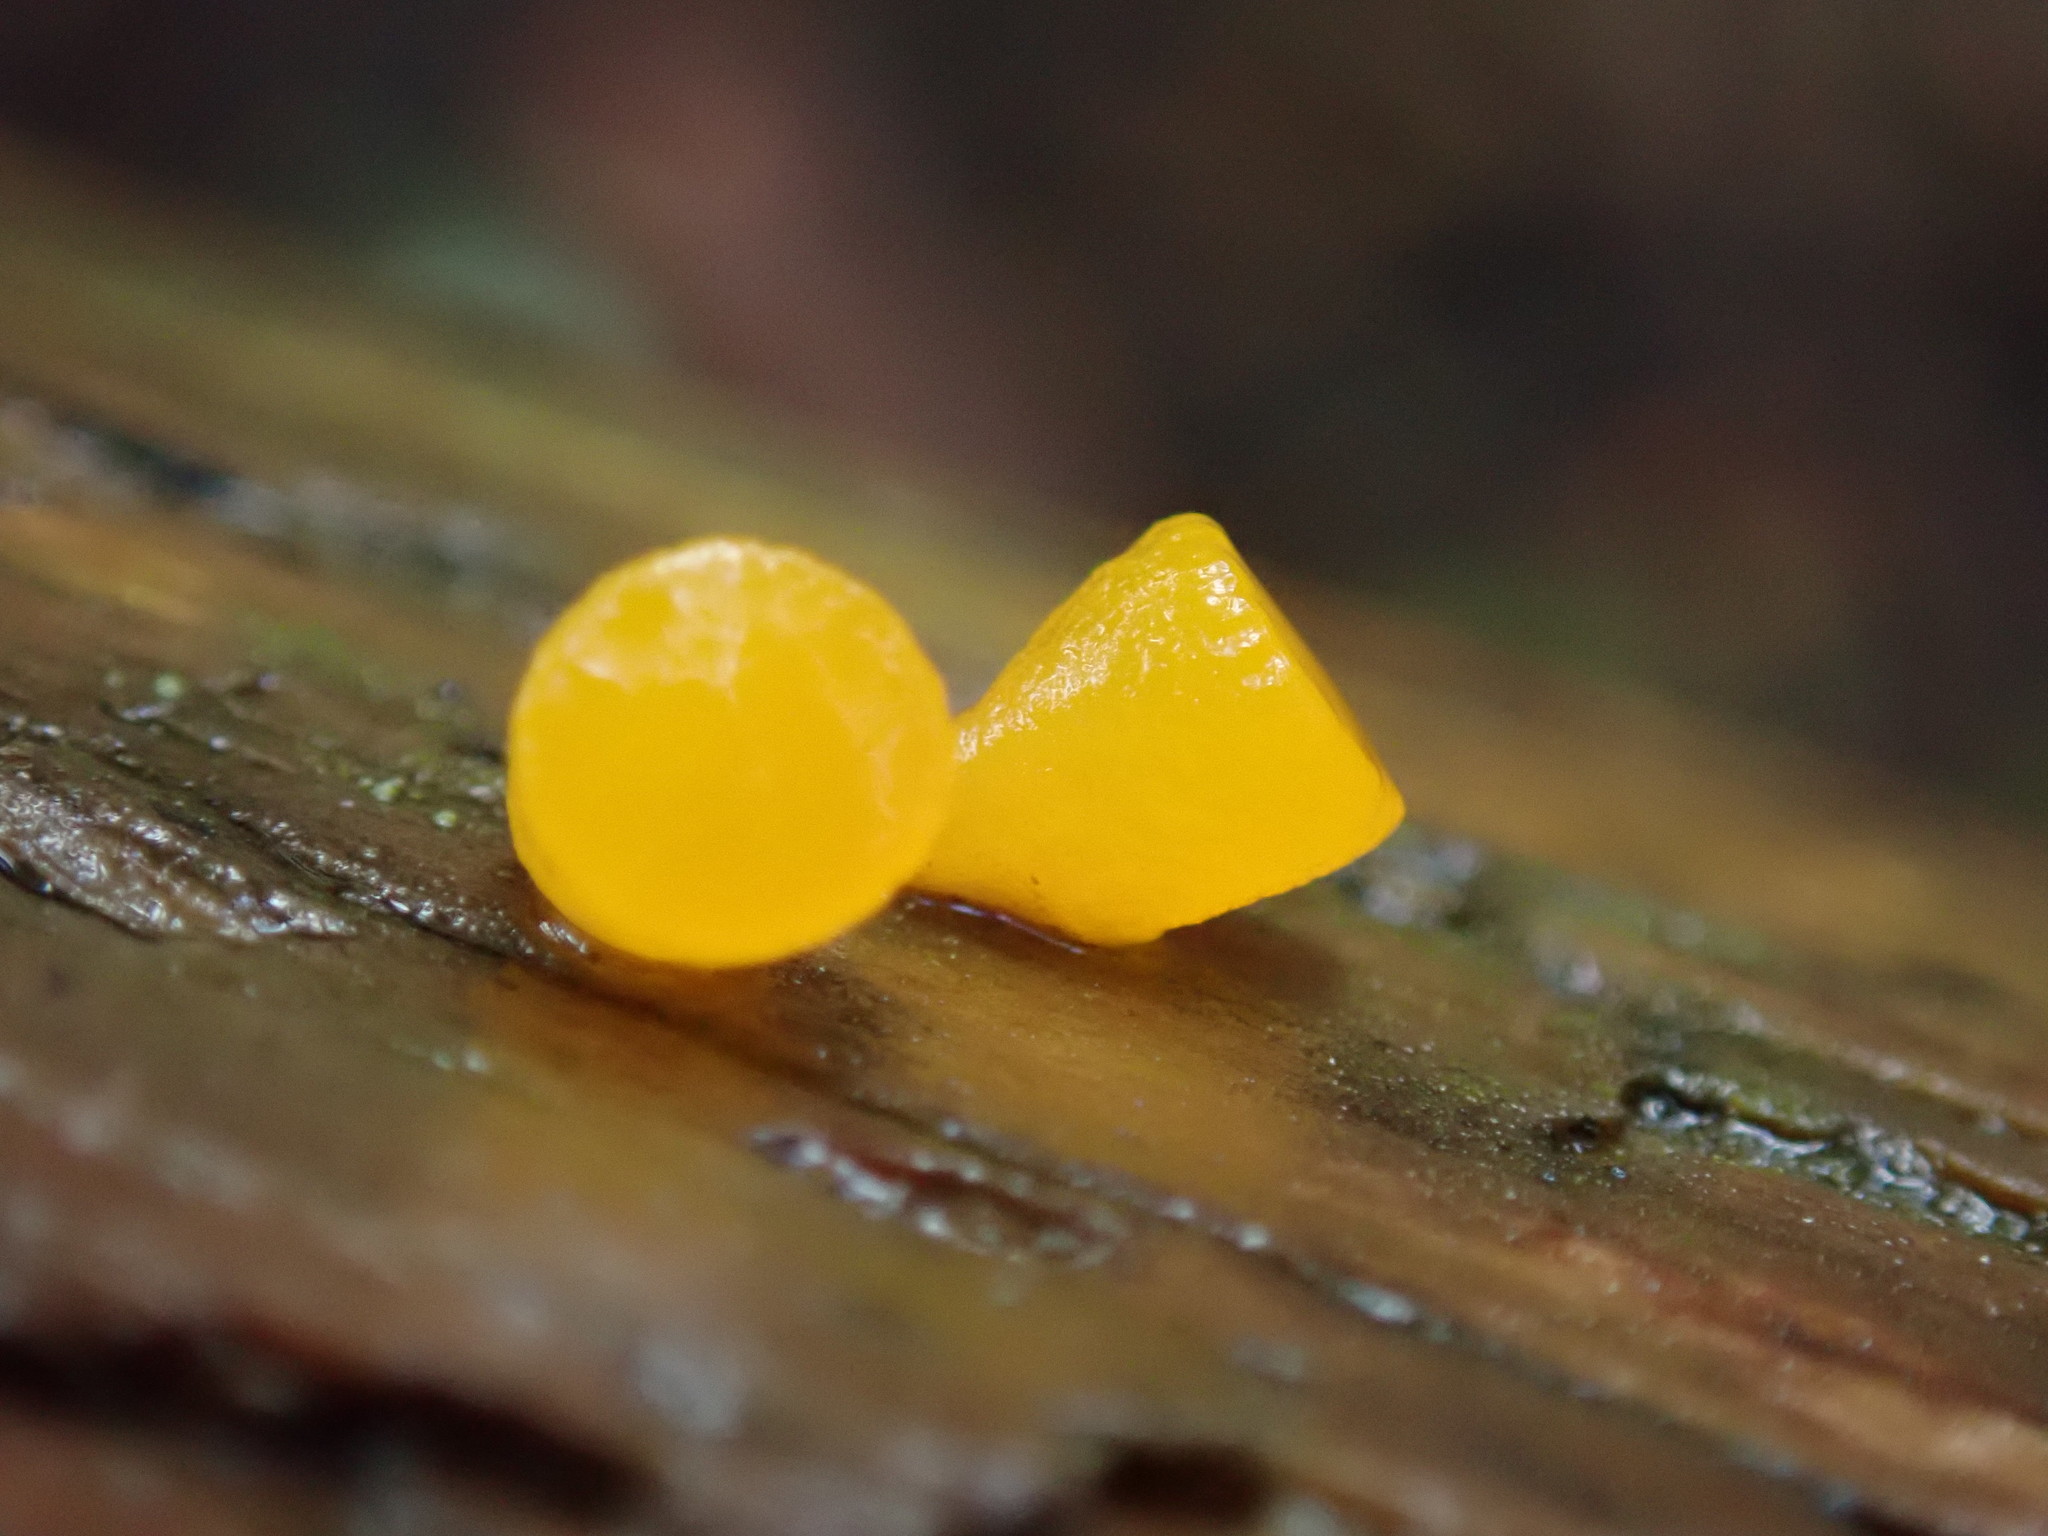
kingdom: Fungi
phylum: Basidiomycota
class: Dacrymycetes
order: Dacrymycetales
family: Dacrymycetaceae
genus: Guepiniopsis
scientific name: Guepiniopsis alpina
